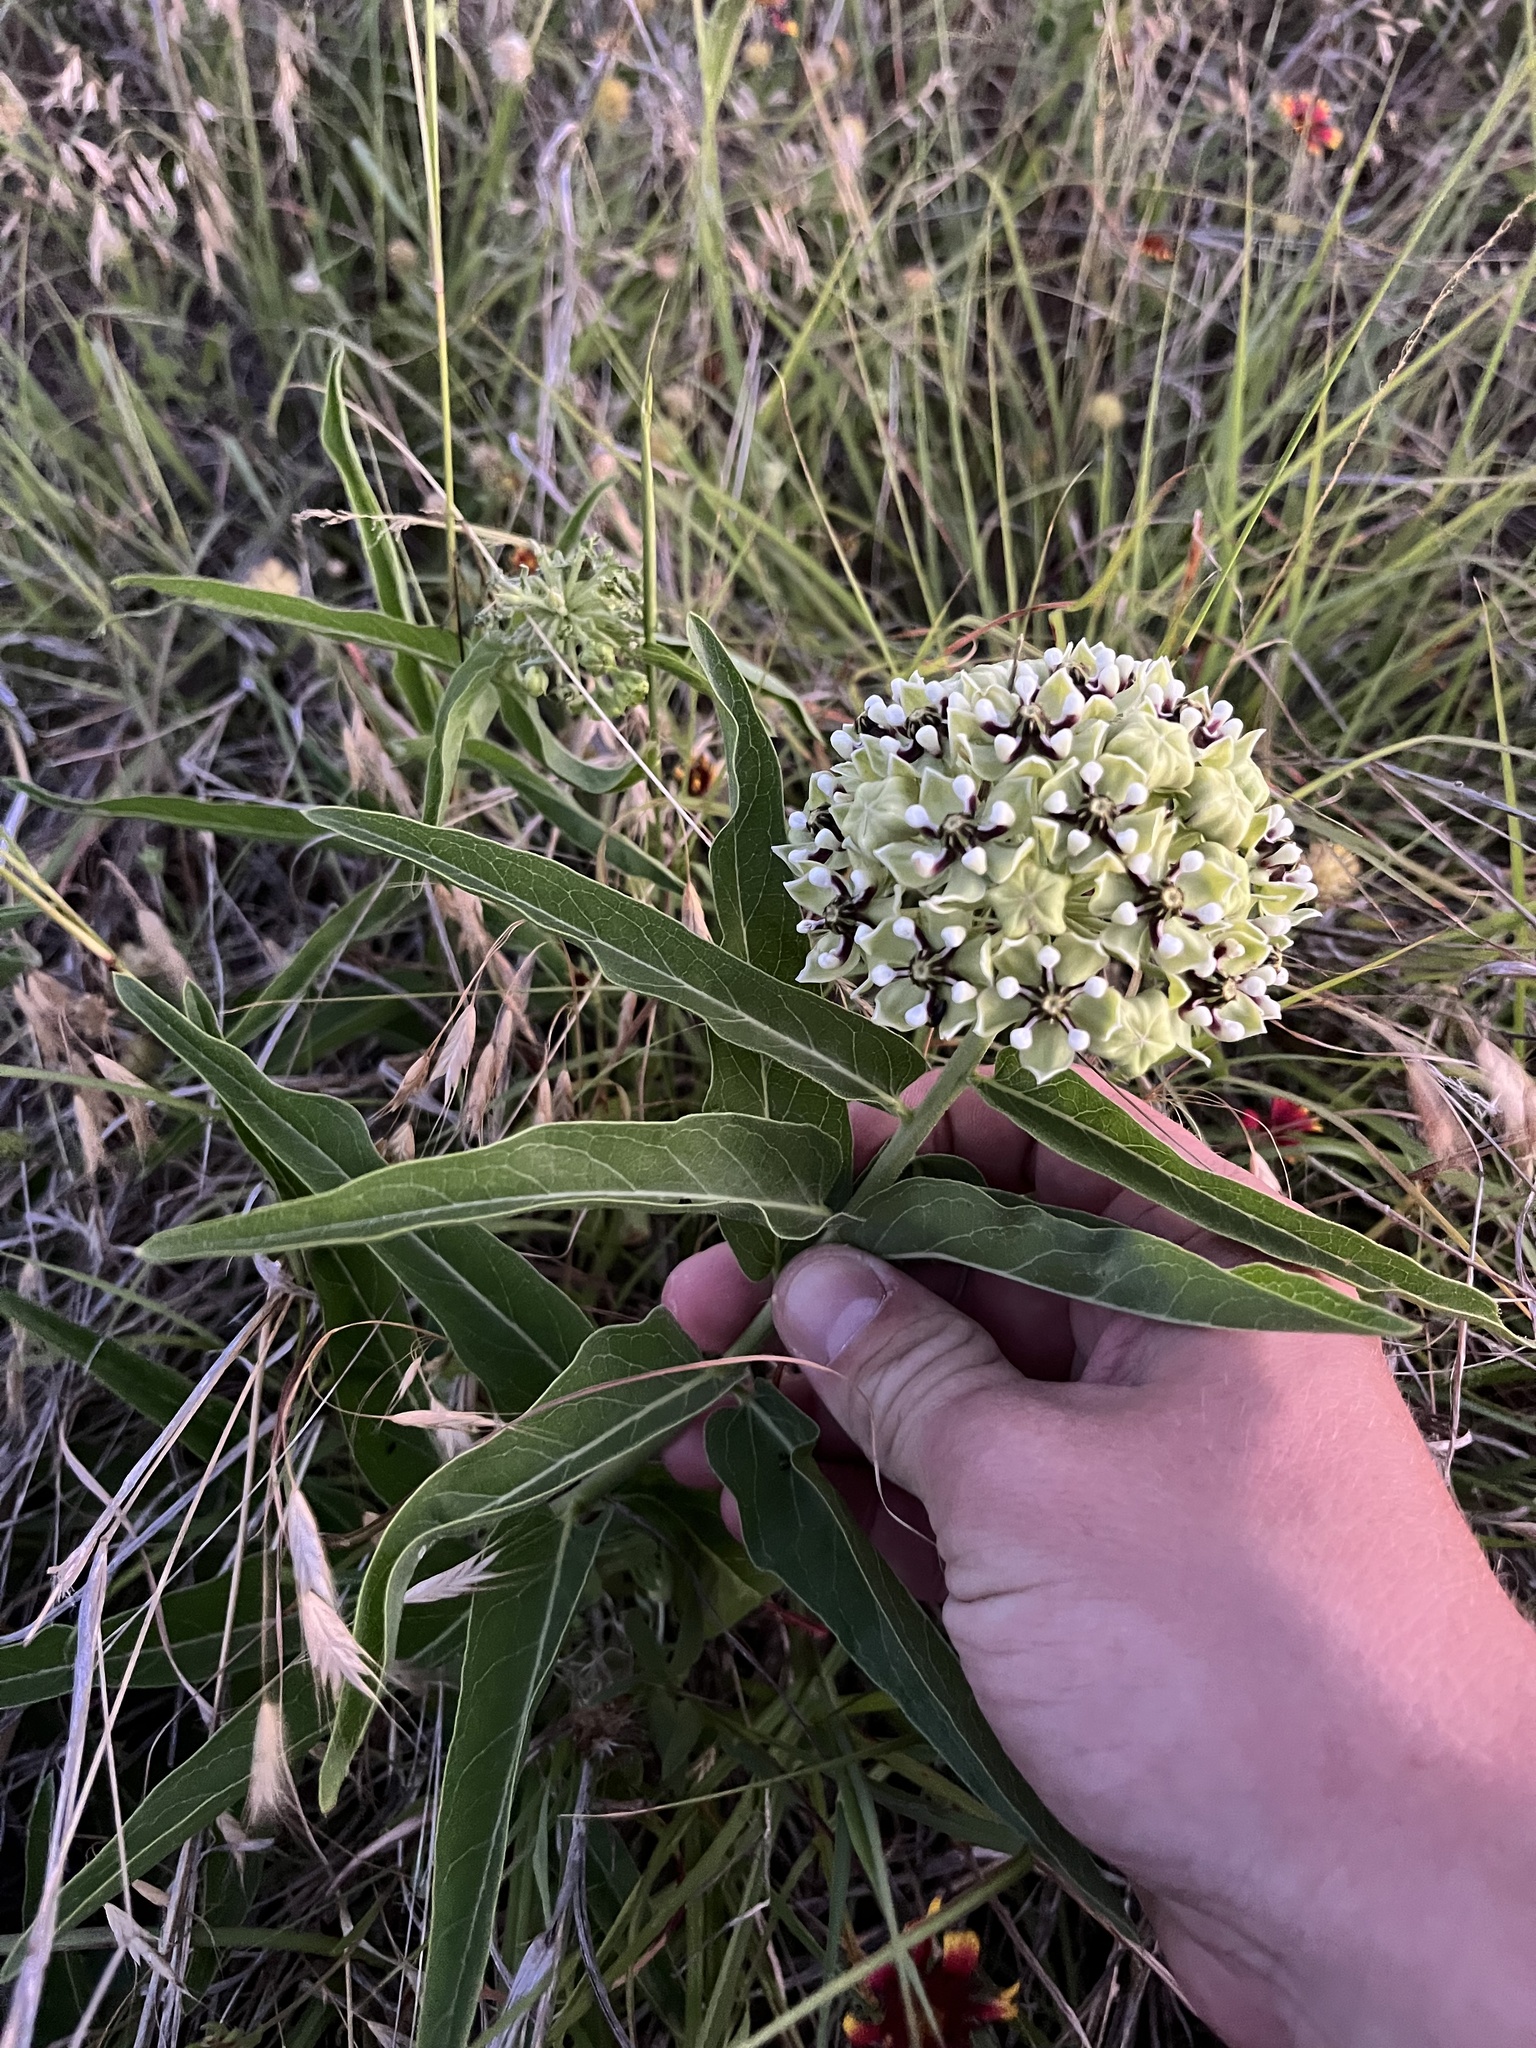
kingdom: Plantae
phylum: Tracheophyta
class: Magnoliopsida
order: Gentianales
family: Apocynaceae
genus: Asclepias
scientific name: Asclepias asperula
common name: Antelope horns
